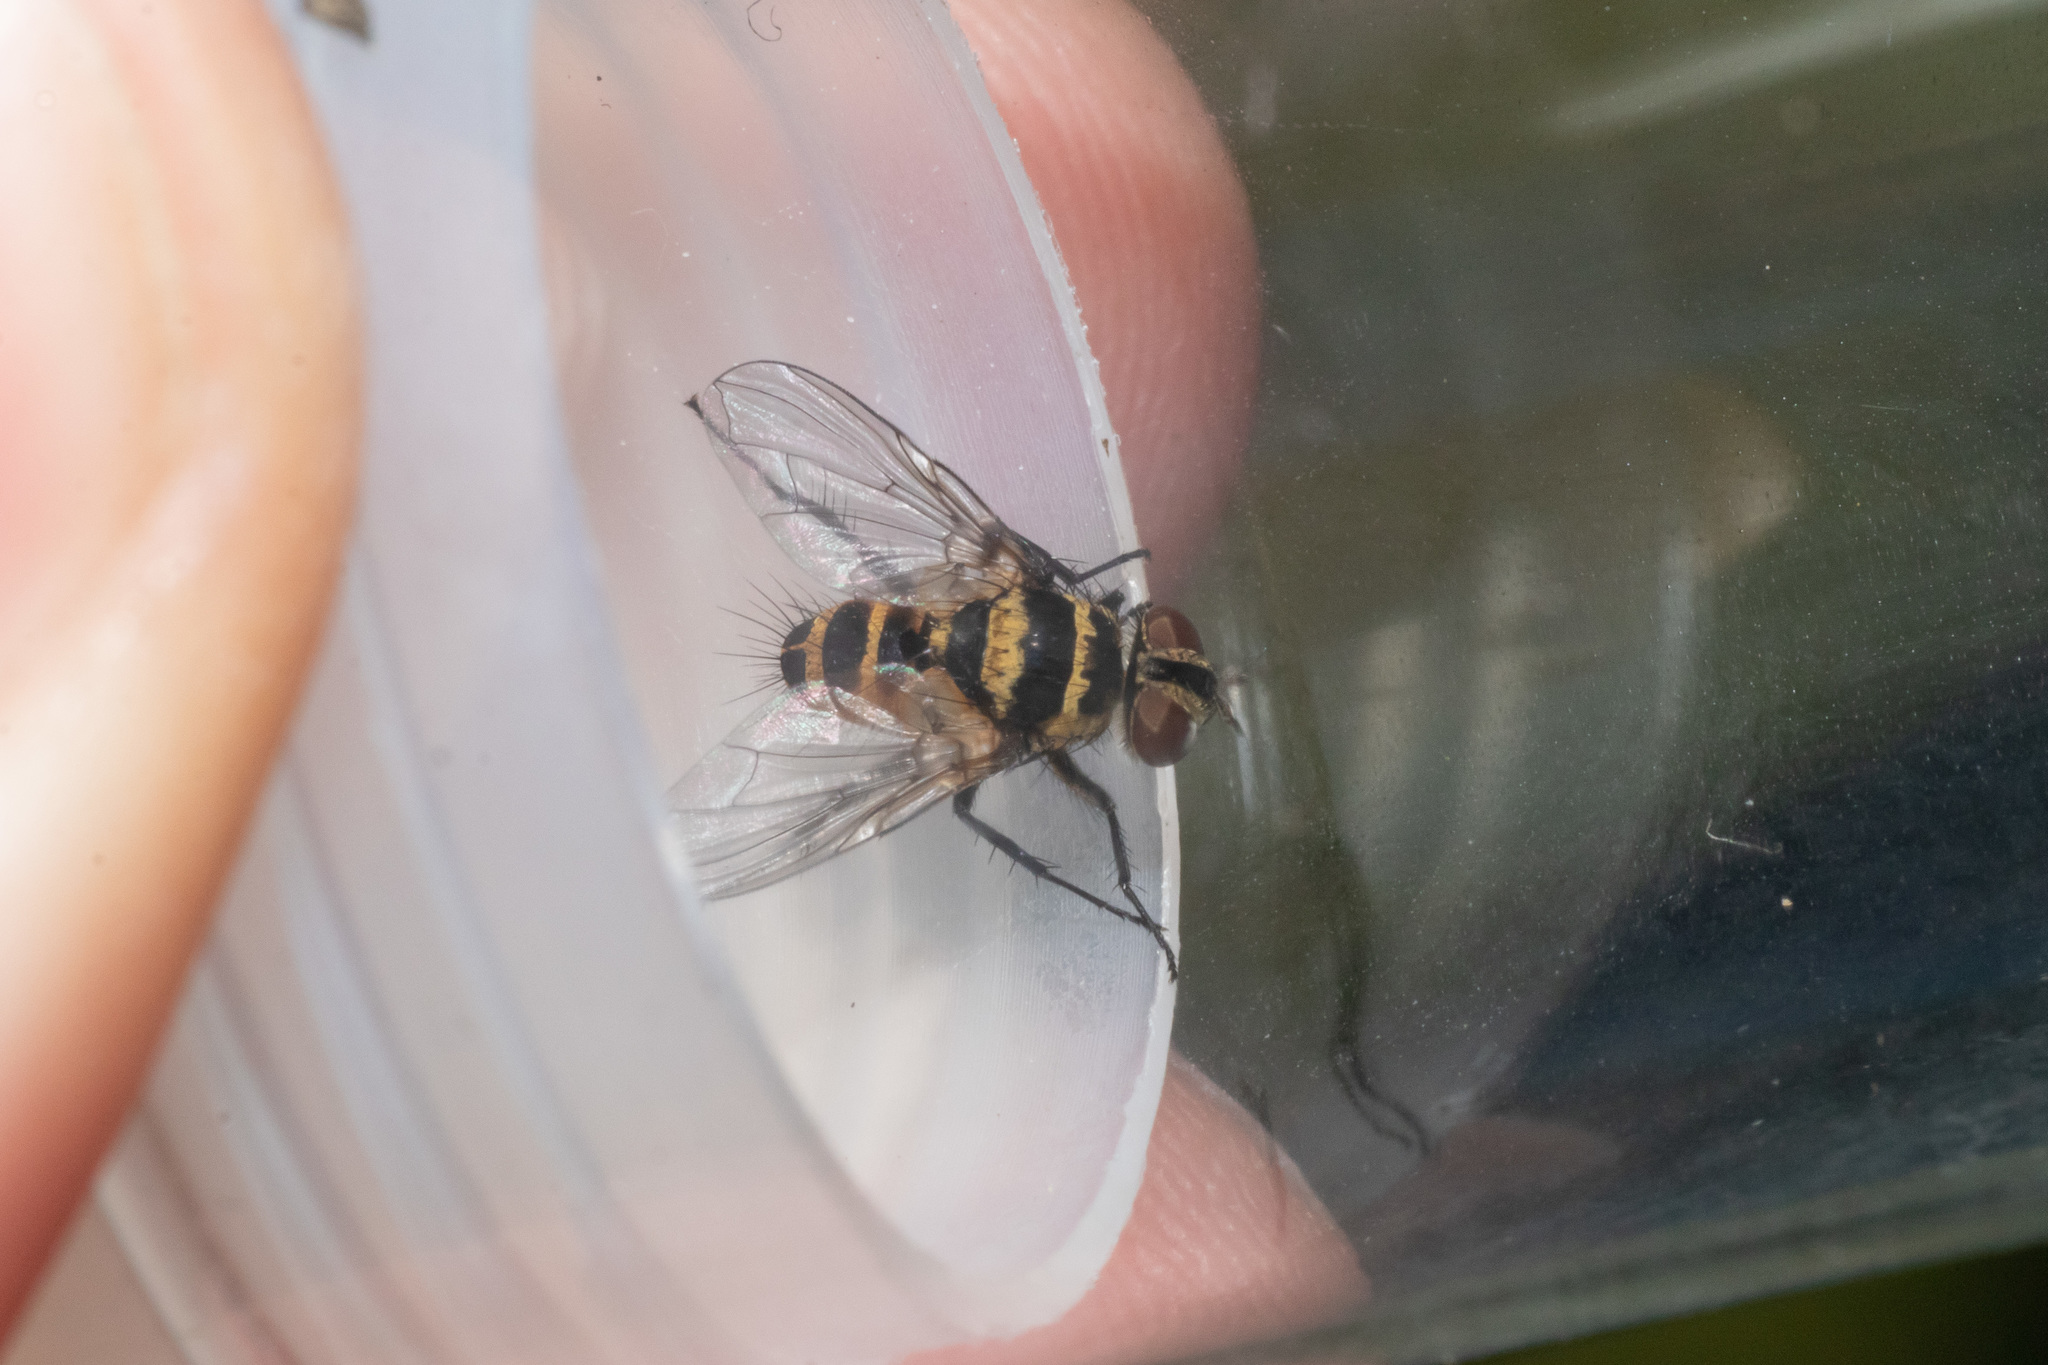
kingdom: Animalia
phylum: Arthropoda
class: Insecta
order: Diptera
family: Tachinidae
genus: Trigonospila
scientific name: Trigonospila brevifacies
